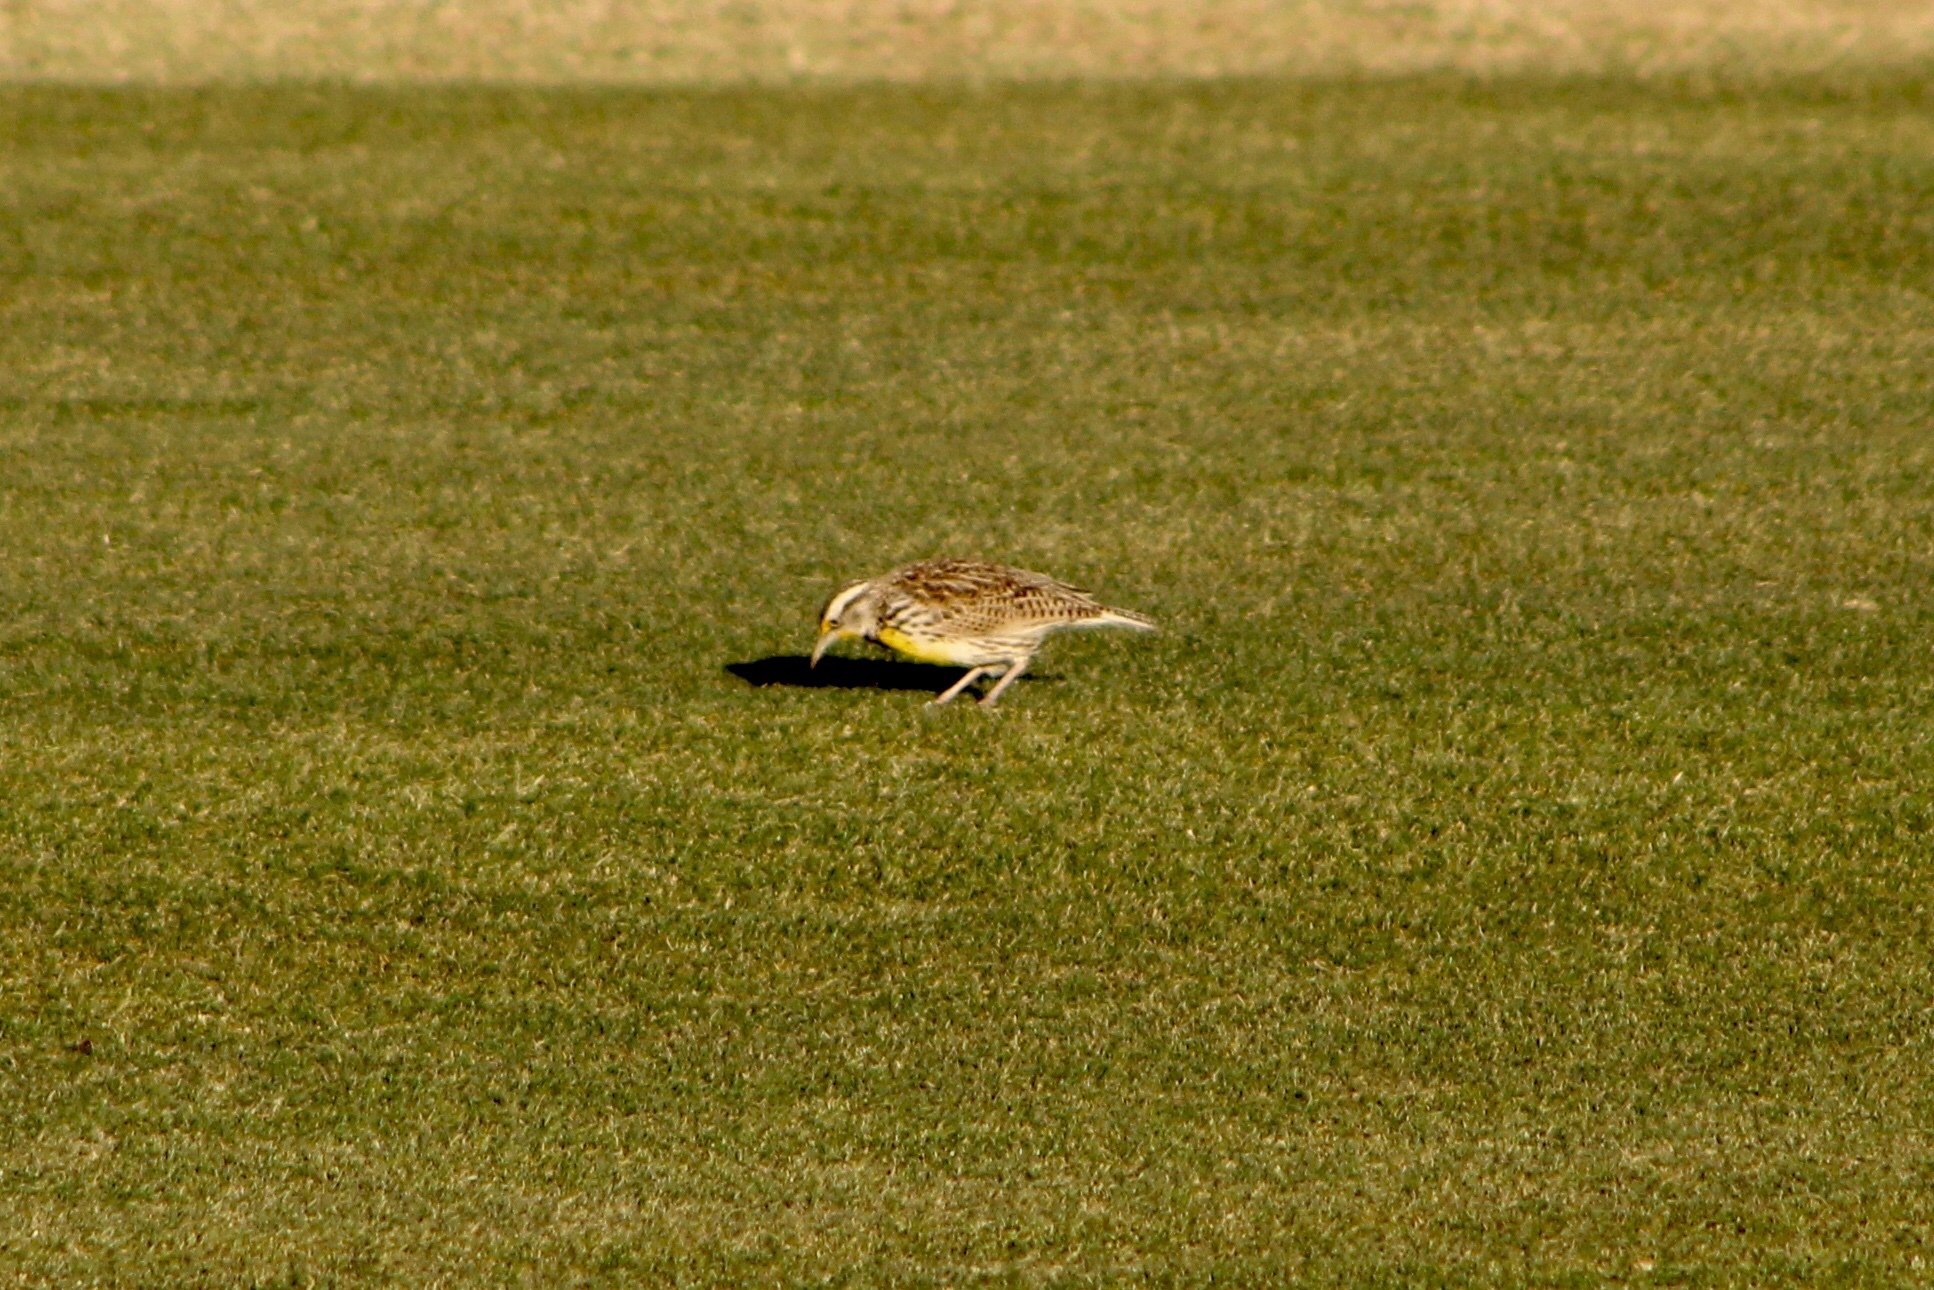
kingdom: Animalia
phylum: Chordata
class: Aves
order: Passeriformes
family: Icteridae
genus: Sturnella
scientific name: Sturnella neglecta
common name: Western meadowlark
